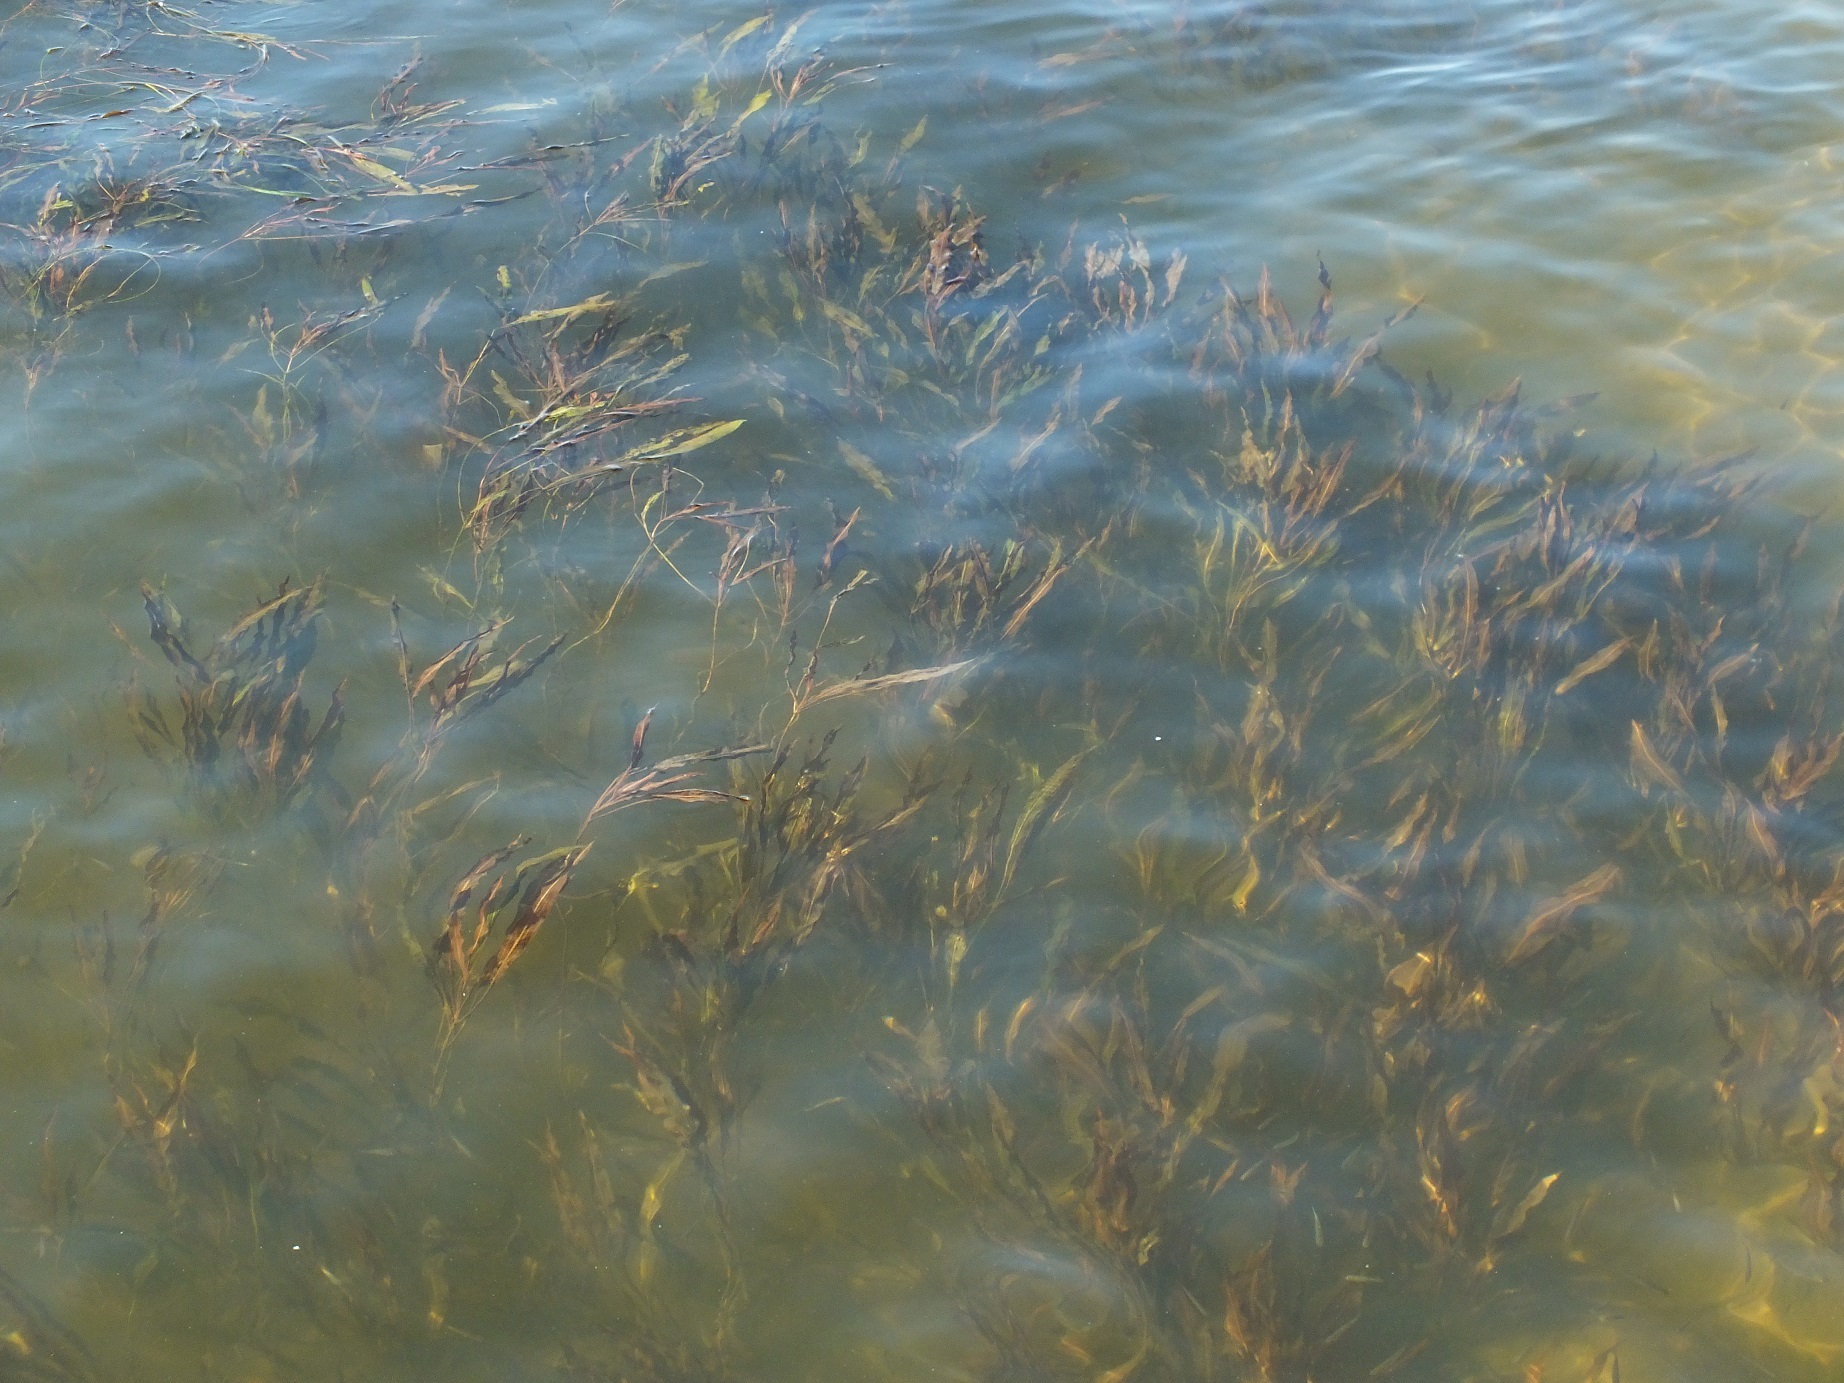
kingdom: Plantae
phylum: Tracheophyta
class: Liliopsida
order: Alismatales
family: Potamogetonaceae
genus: Potamogeton
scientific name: Potamogeton nodosus
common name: Loddon pondweed
